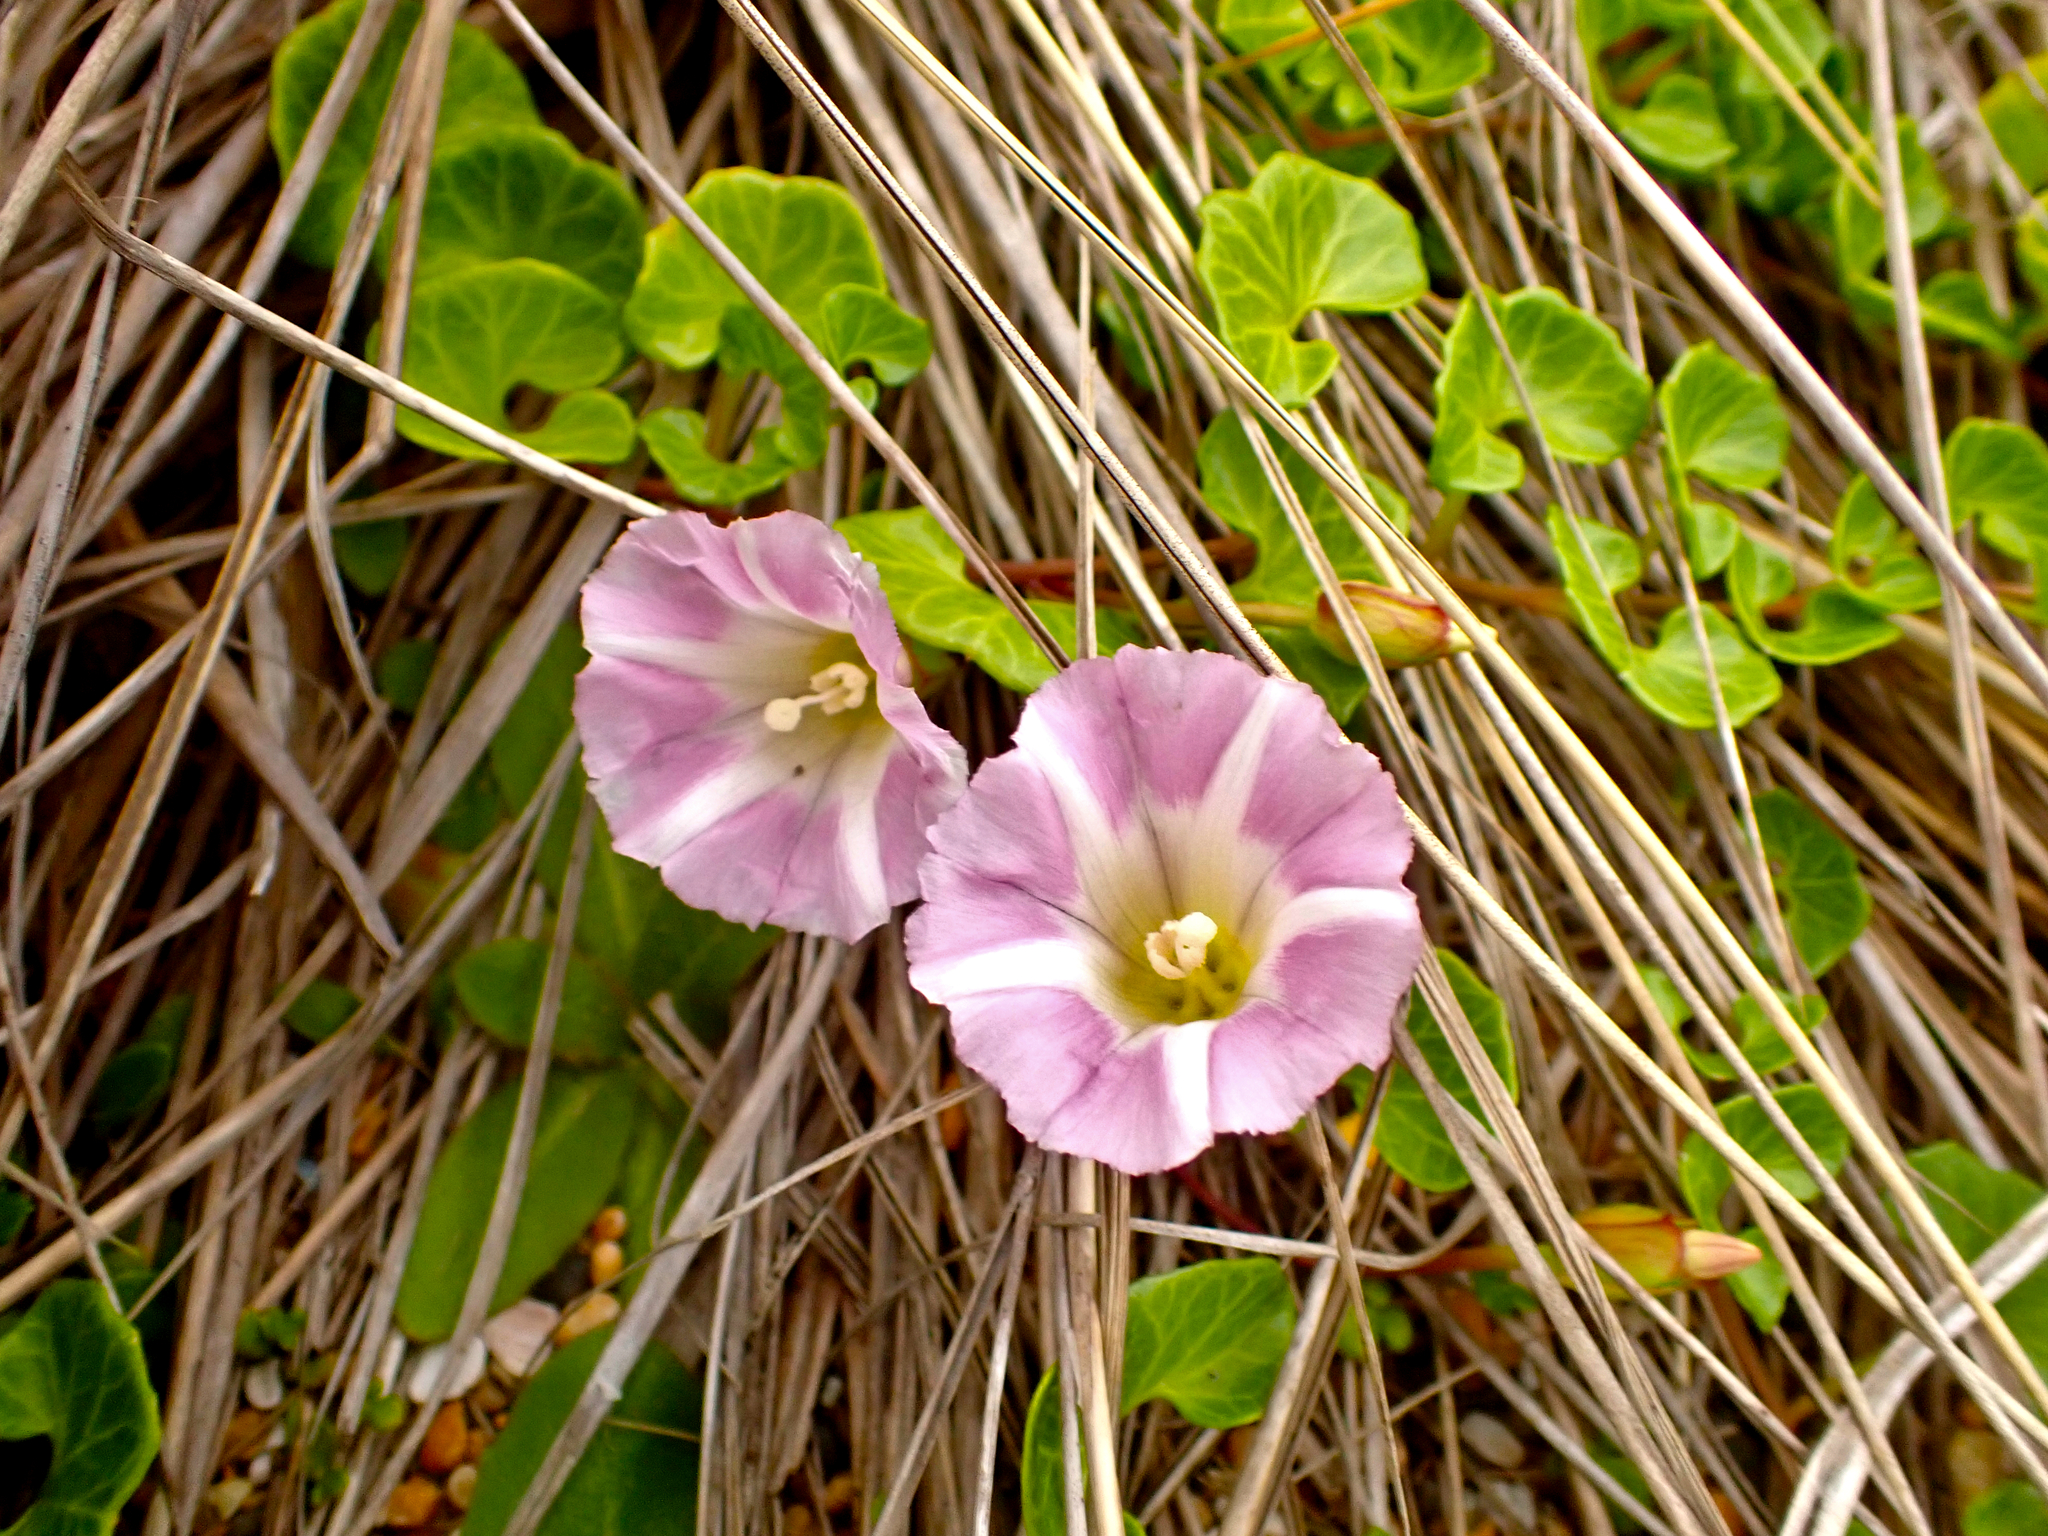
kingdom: Plantae
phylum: Tracheophyta
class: Magnoliopsida
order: Solanales
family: Convolvulaceae
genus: Calystegia
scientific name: Calystegia soldanella
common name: Sea bindweed
